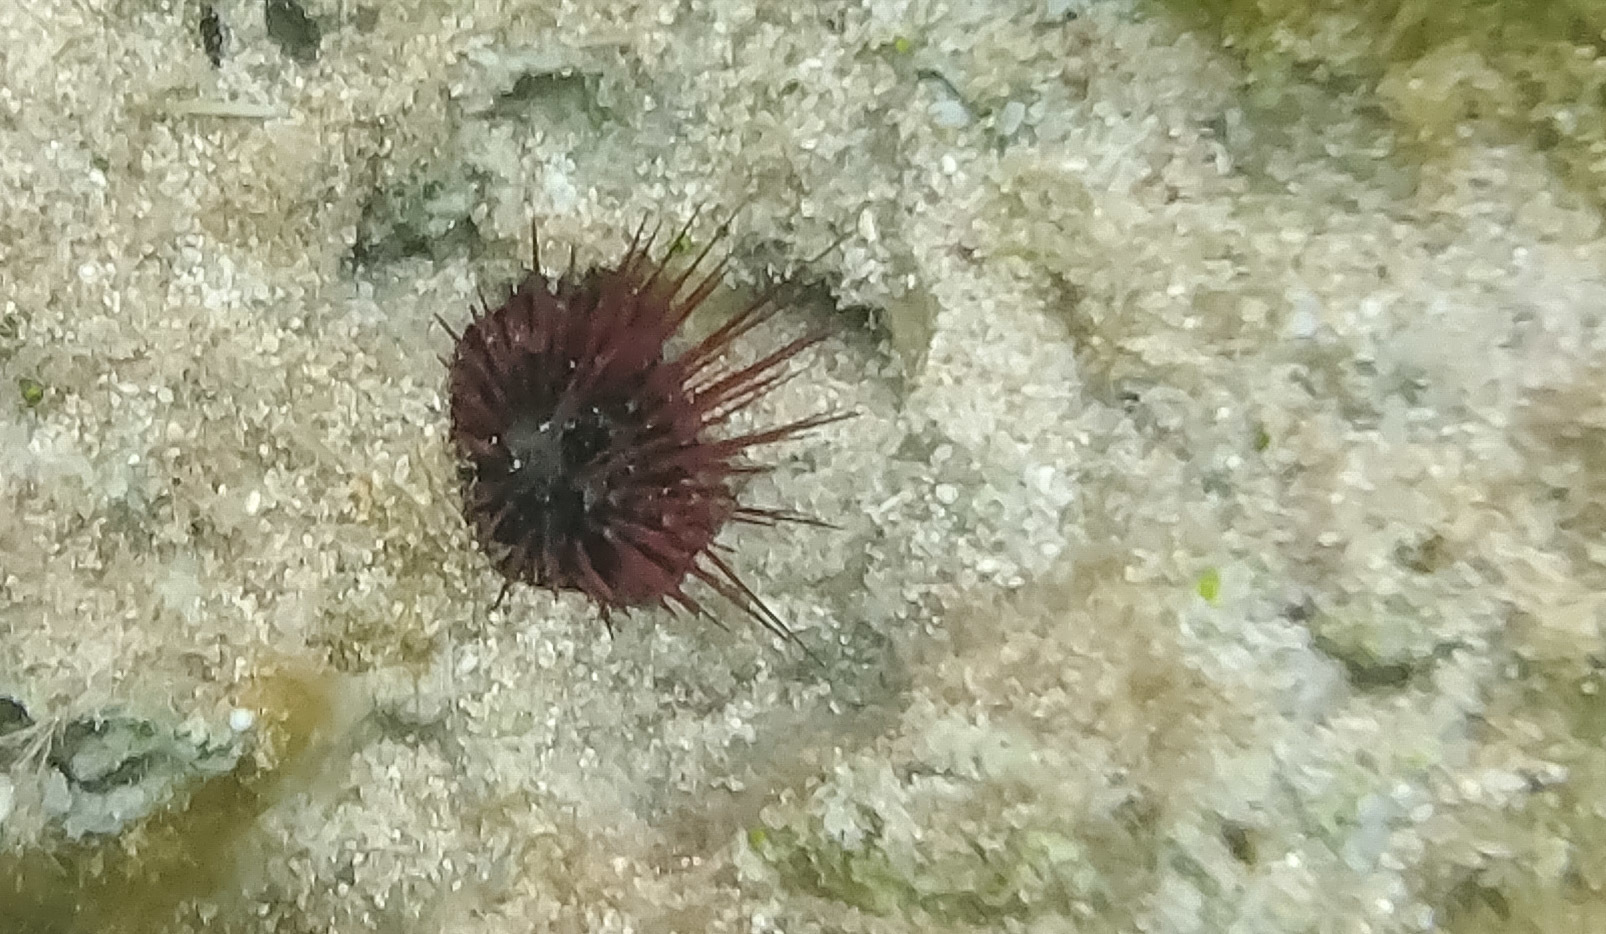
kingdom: Animalia
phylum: Echinodermata
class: Echinoidea
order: Camarodonta
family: Echinometridae
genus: Echinostrephus
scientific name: Echinostrephus aciculatus
